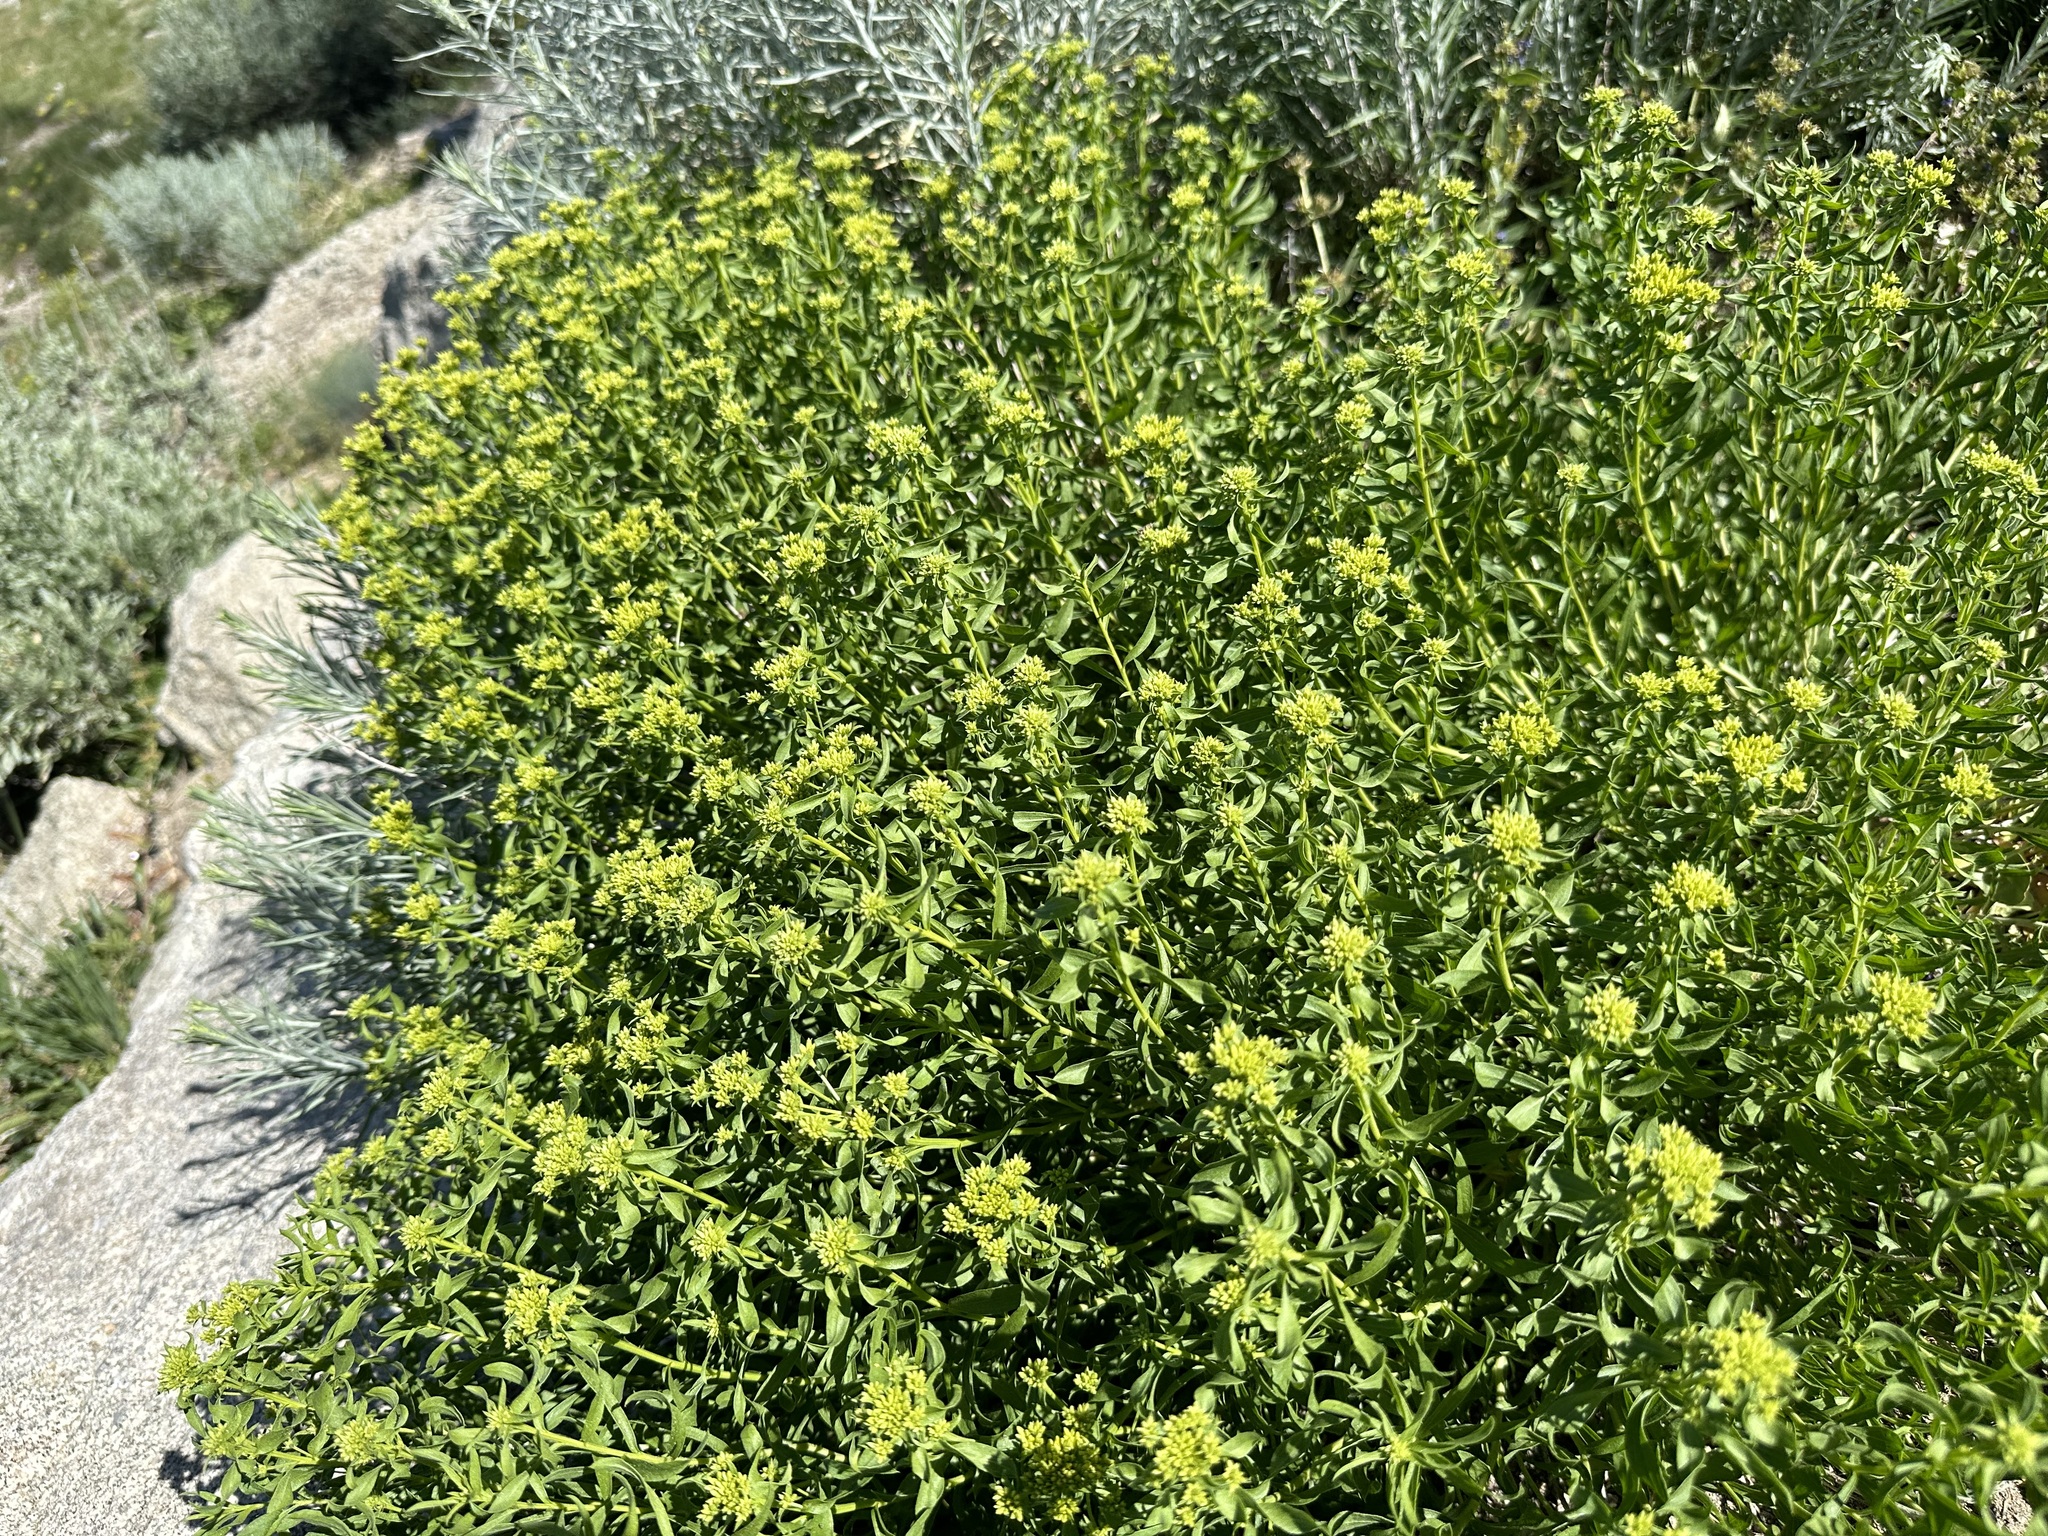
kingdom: Plantae
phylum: Tracheophyta
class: Magnoliopsida
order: Asterales
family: Asteraceae
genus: Chrysothamnus
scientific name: Chrysothamnus viscidiflorus
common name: Yellow rabbitbrush
